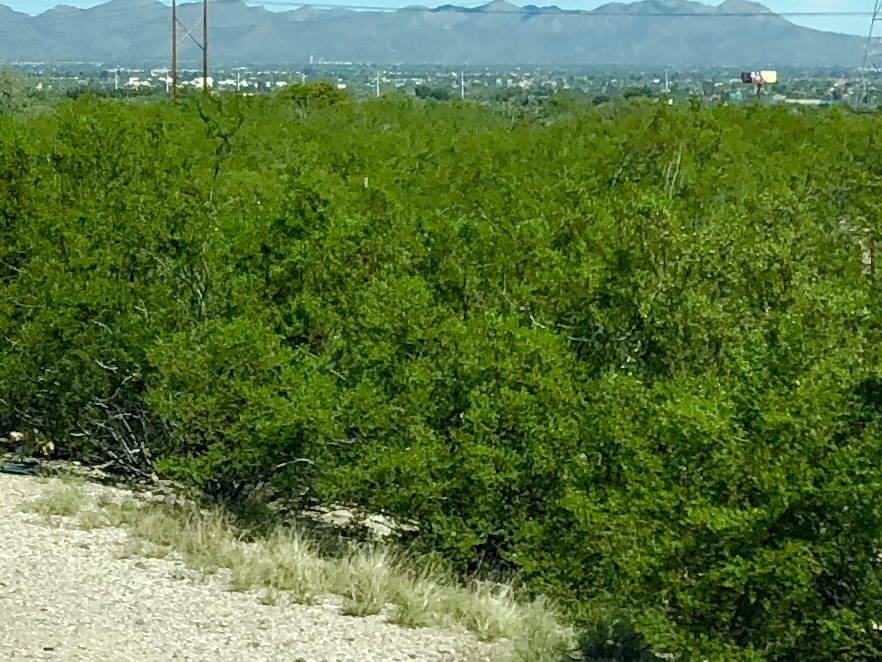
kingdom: Plantae
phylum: Tracheophyta
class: Magnoliopsida
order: Zygophyllales
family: Zygophyllaceae
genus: Larrea
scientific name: Larrea tridentata
